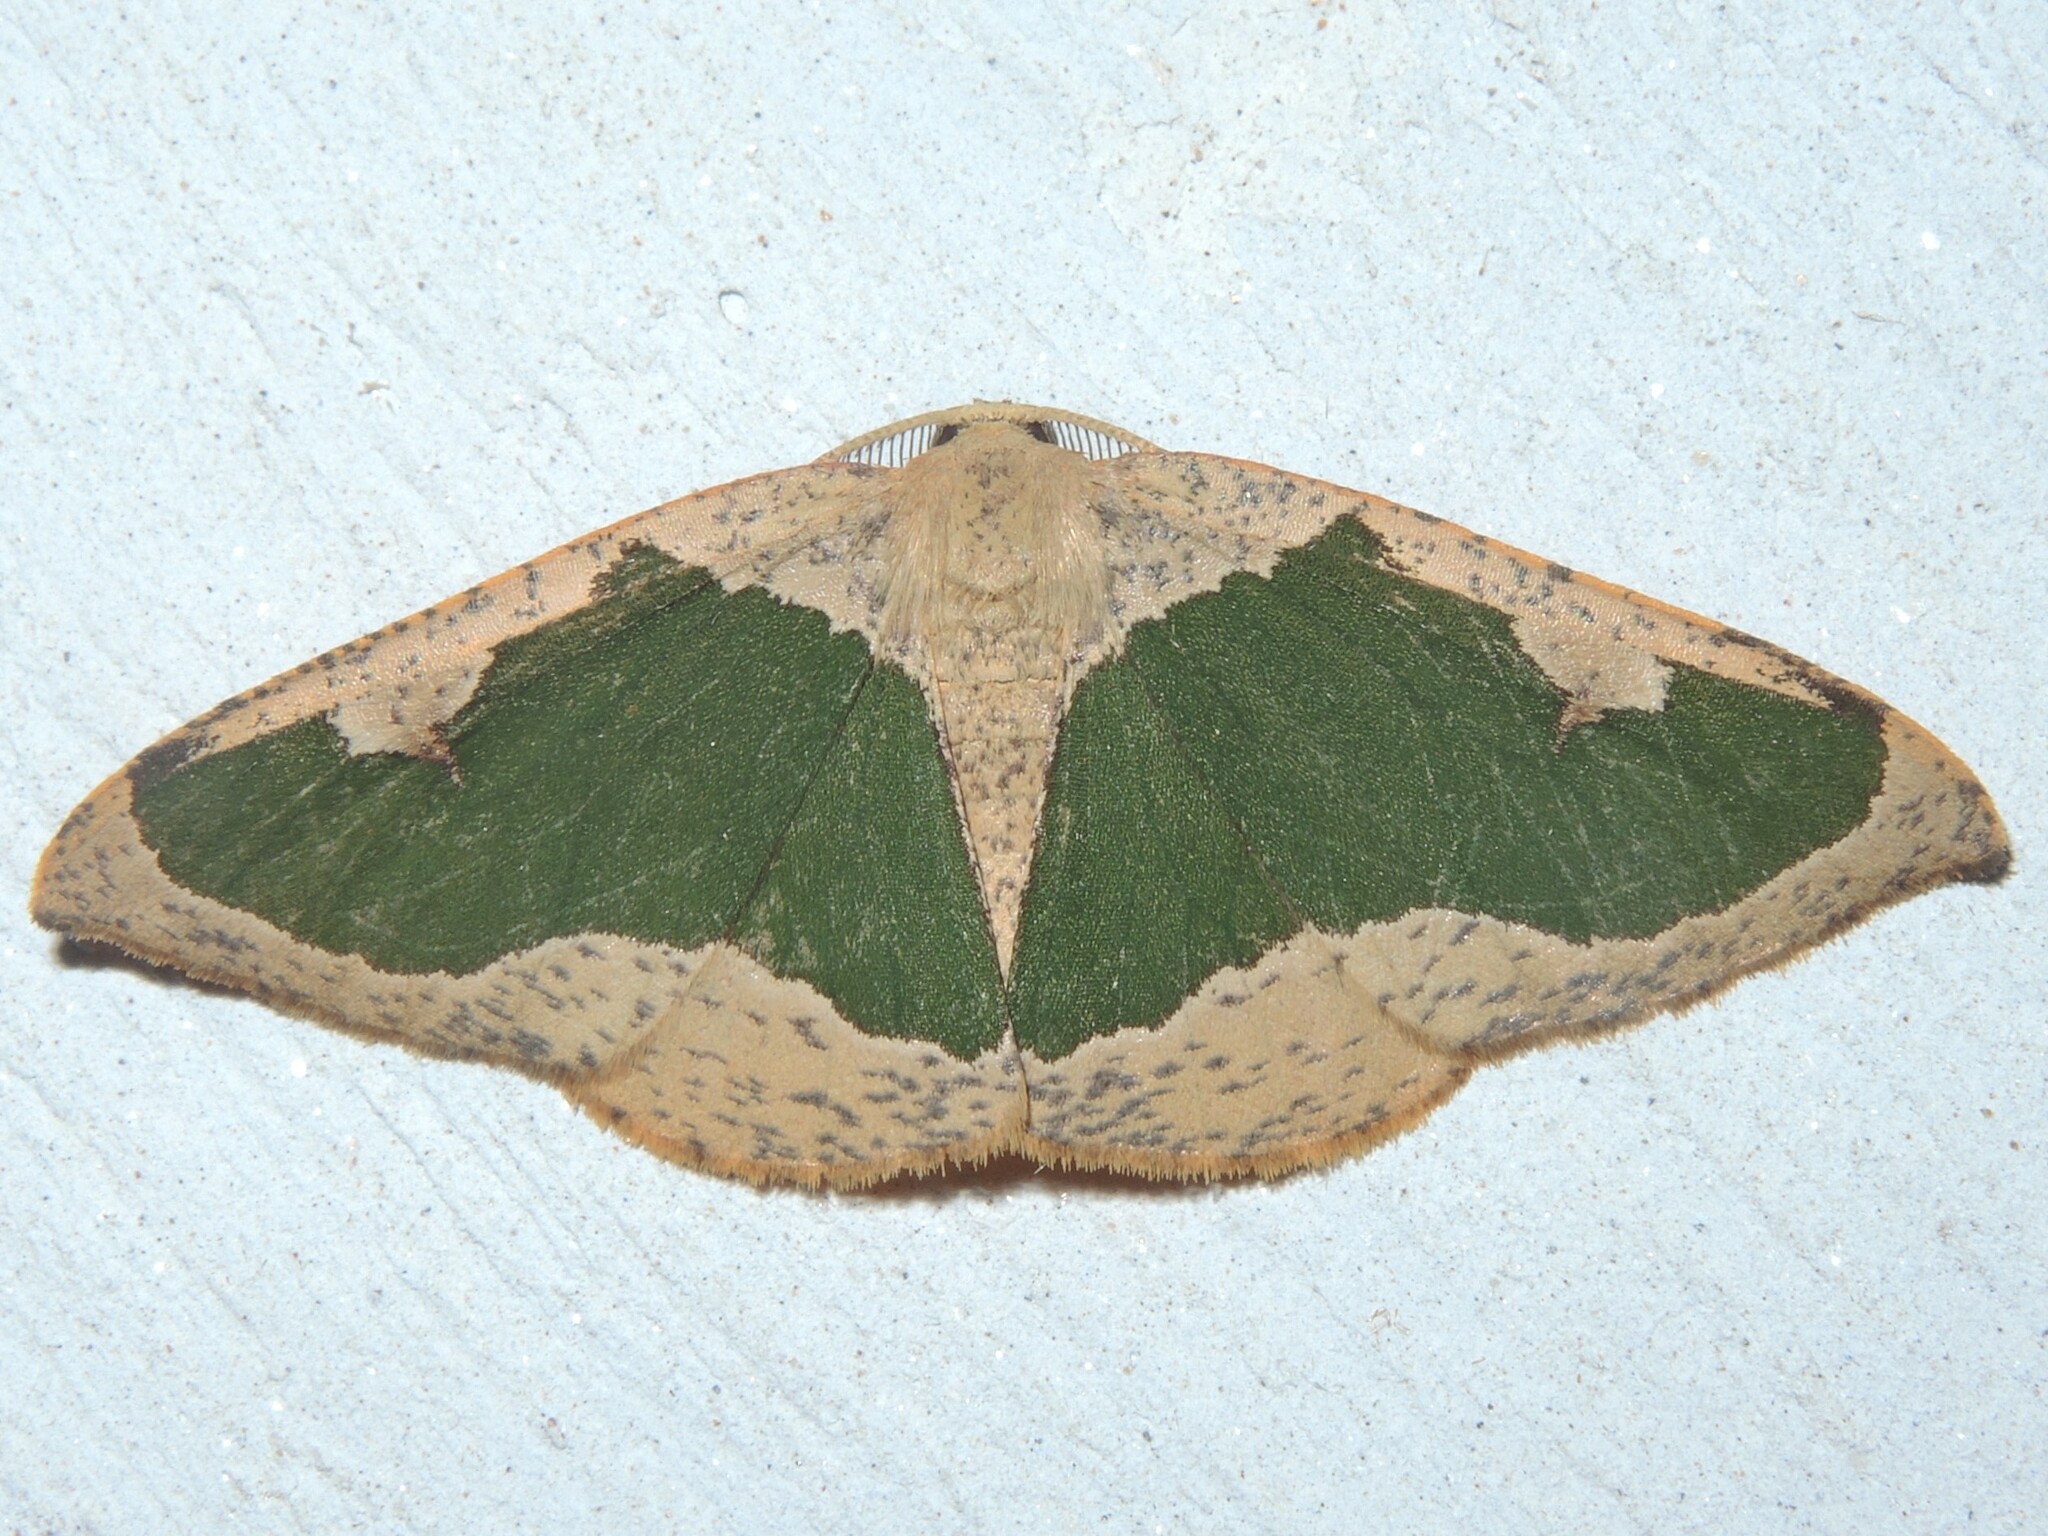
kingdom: Animalia
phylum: Arthropoda
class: Insecta
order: Lepidoptera
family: Geometridae
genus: Celenna
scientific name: Celenna festivaria
